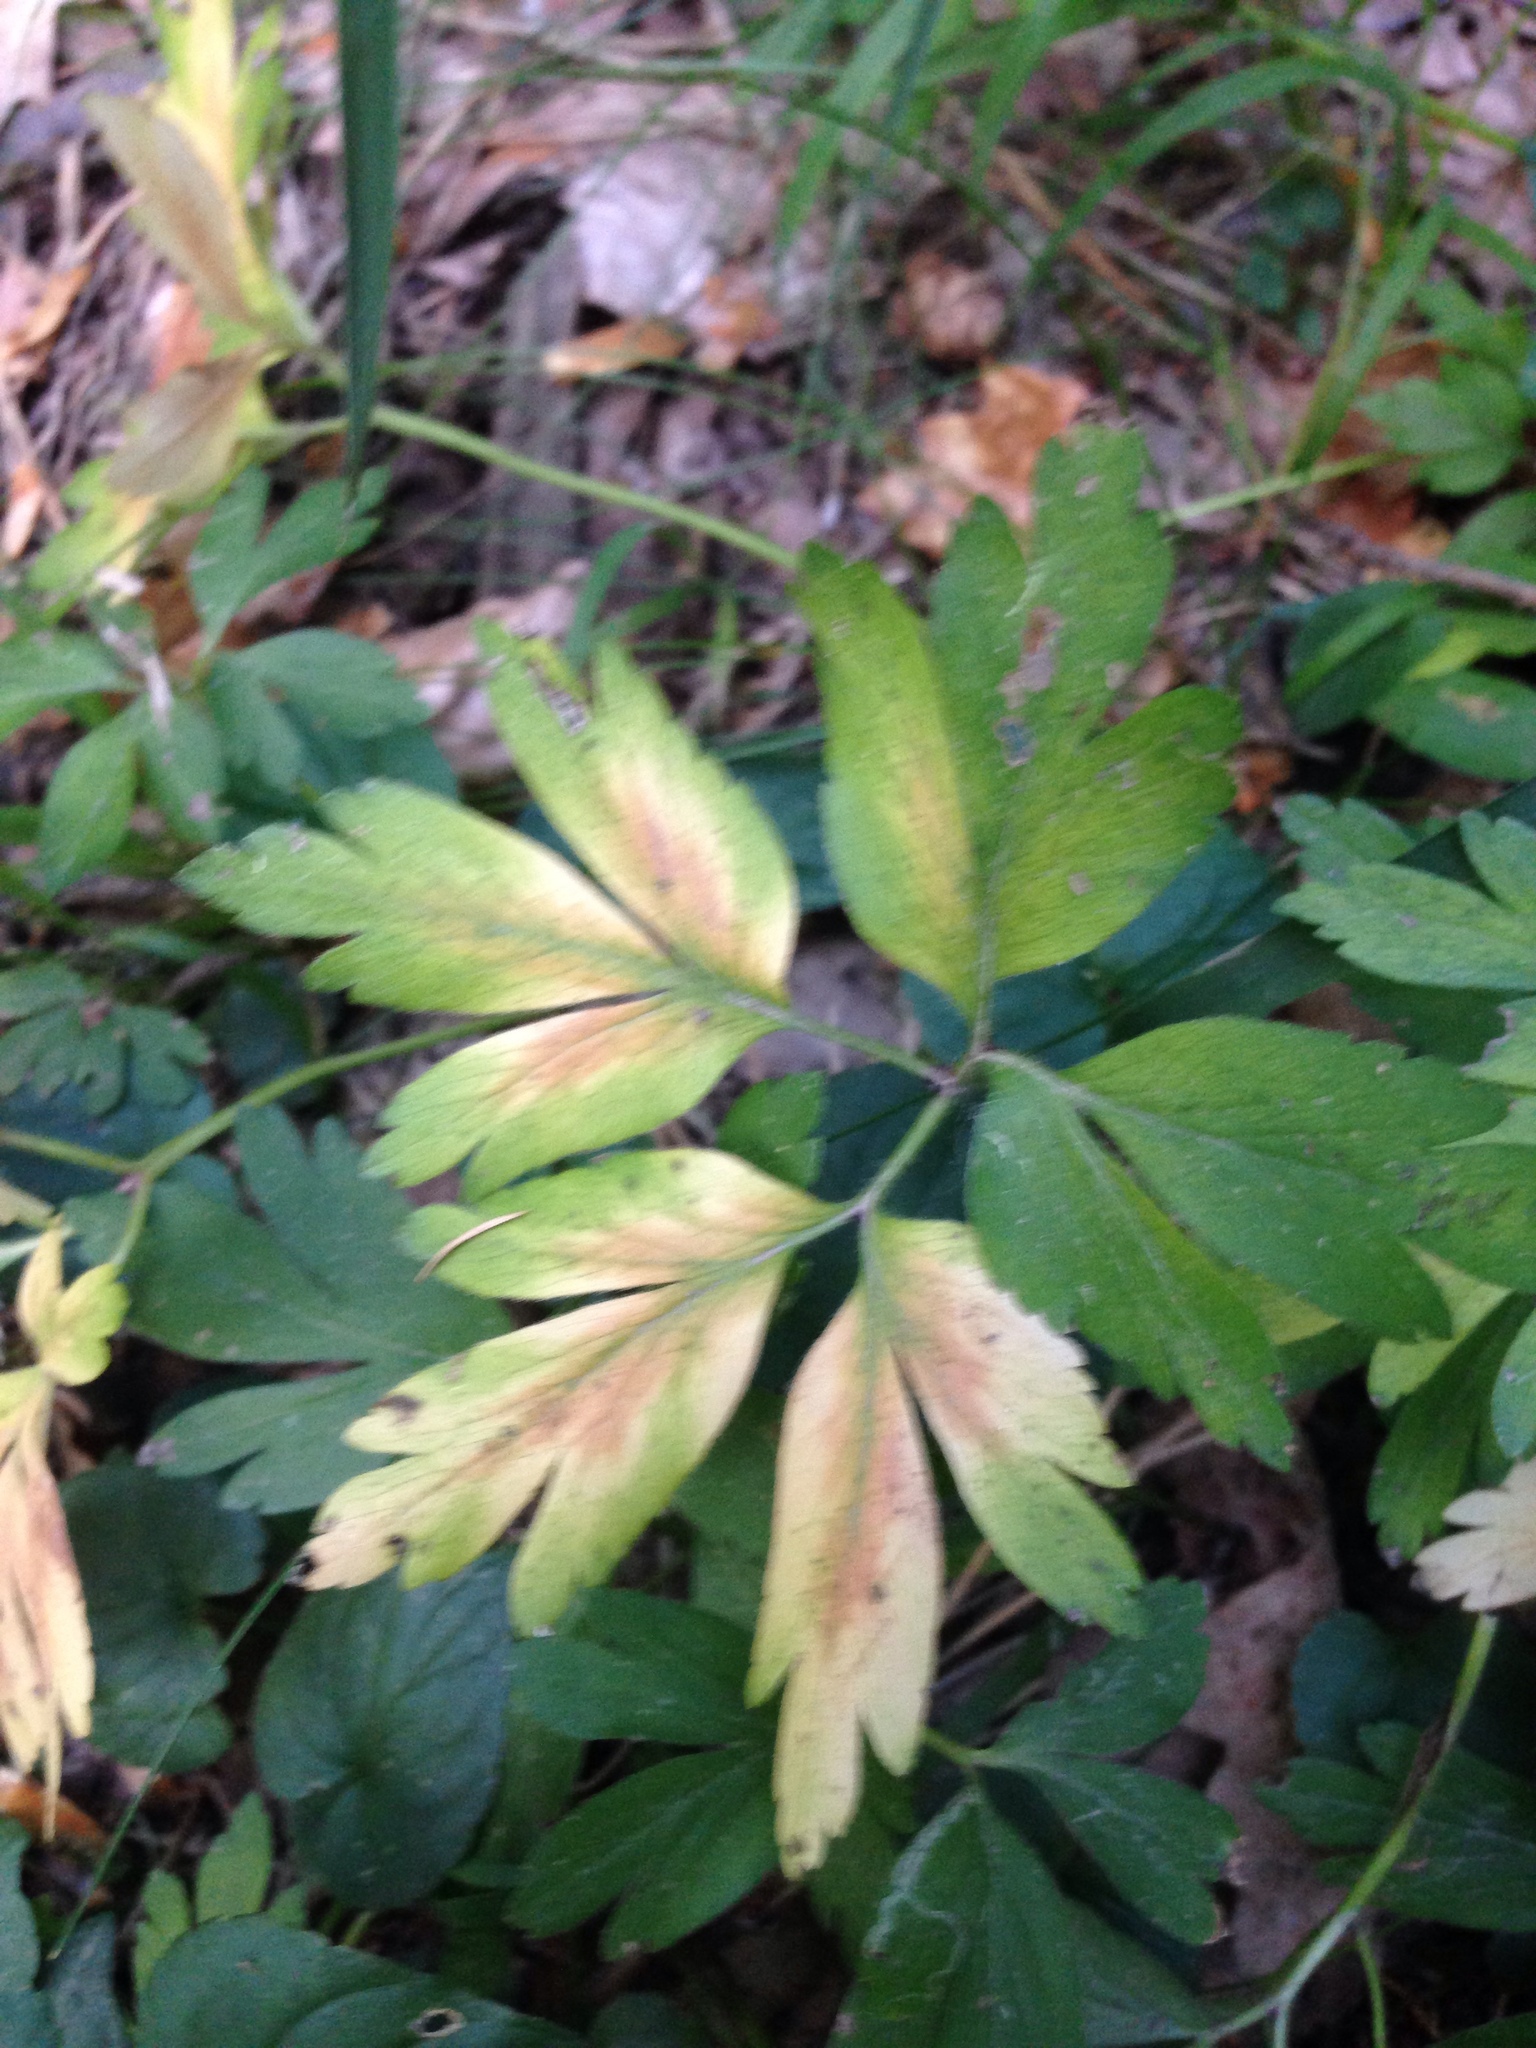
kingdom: Plantae
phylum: Tracheophyta
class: Magnoliopsida
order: Ranunculales
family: Ranunculaceae
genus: Anemone
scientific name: Anemone nemorosa
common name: Wood anemone
